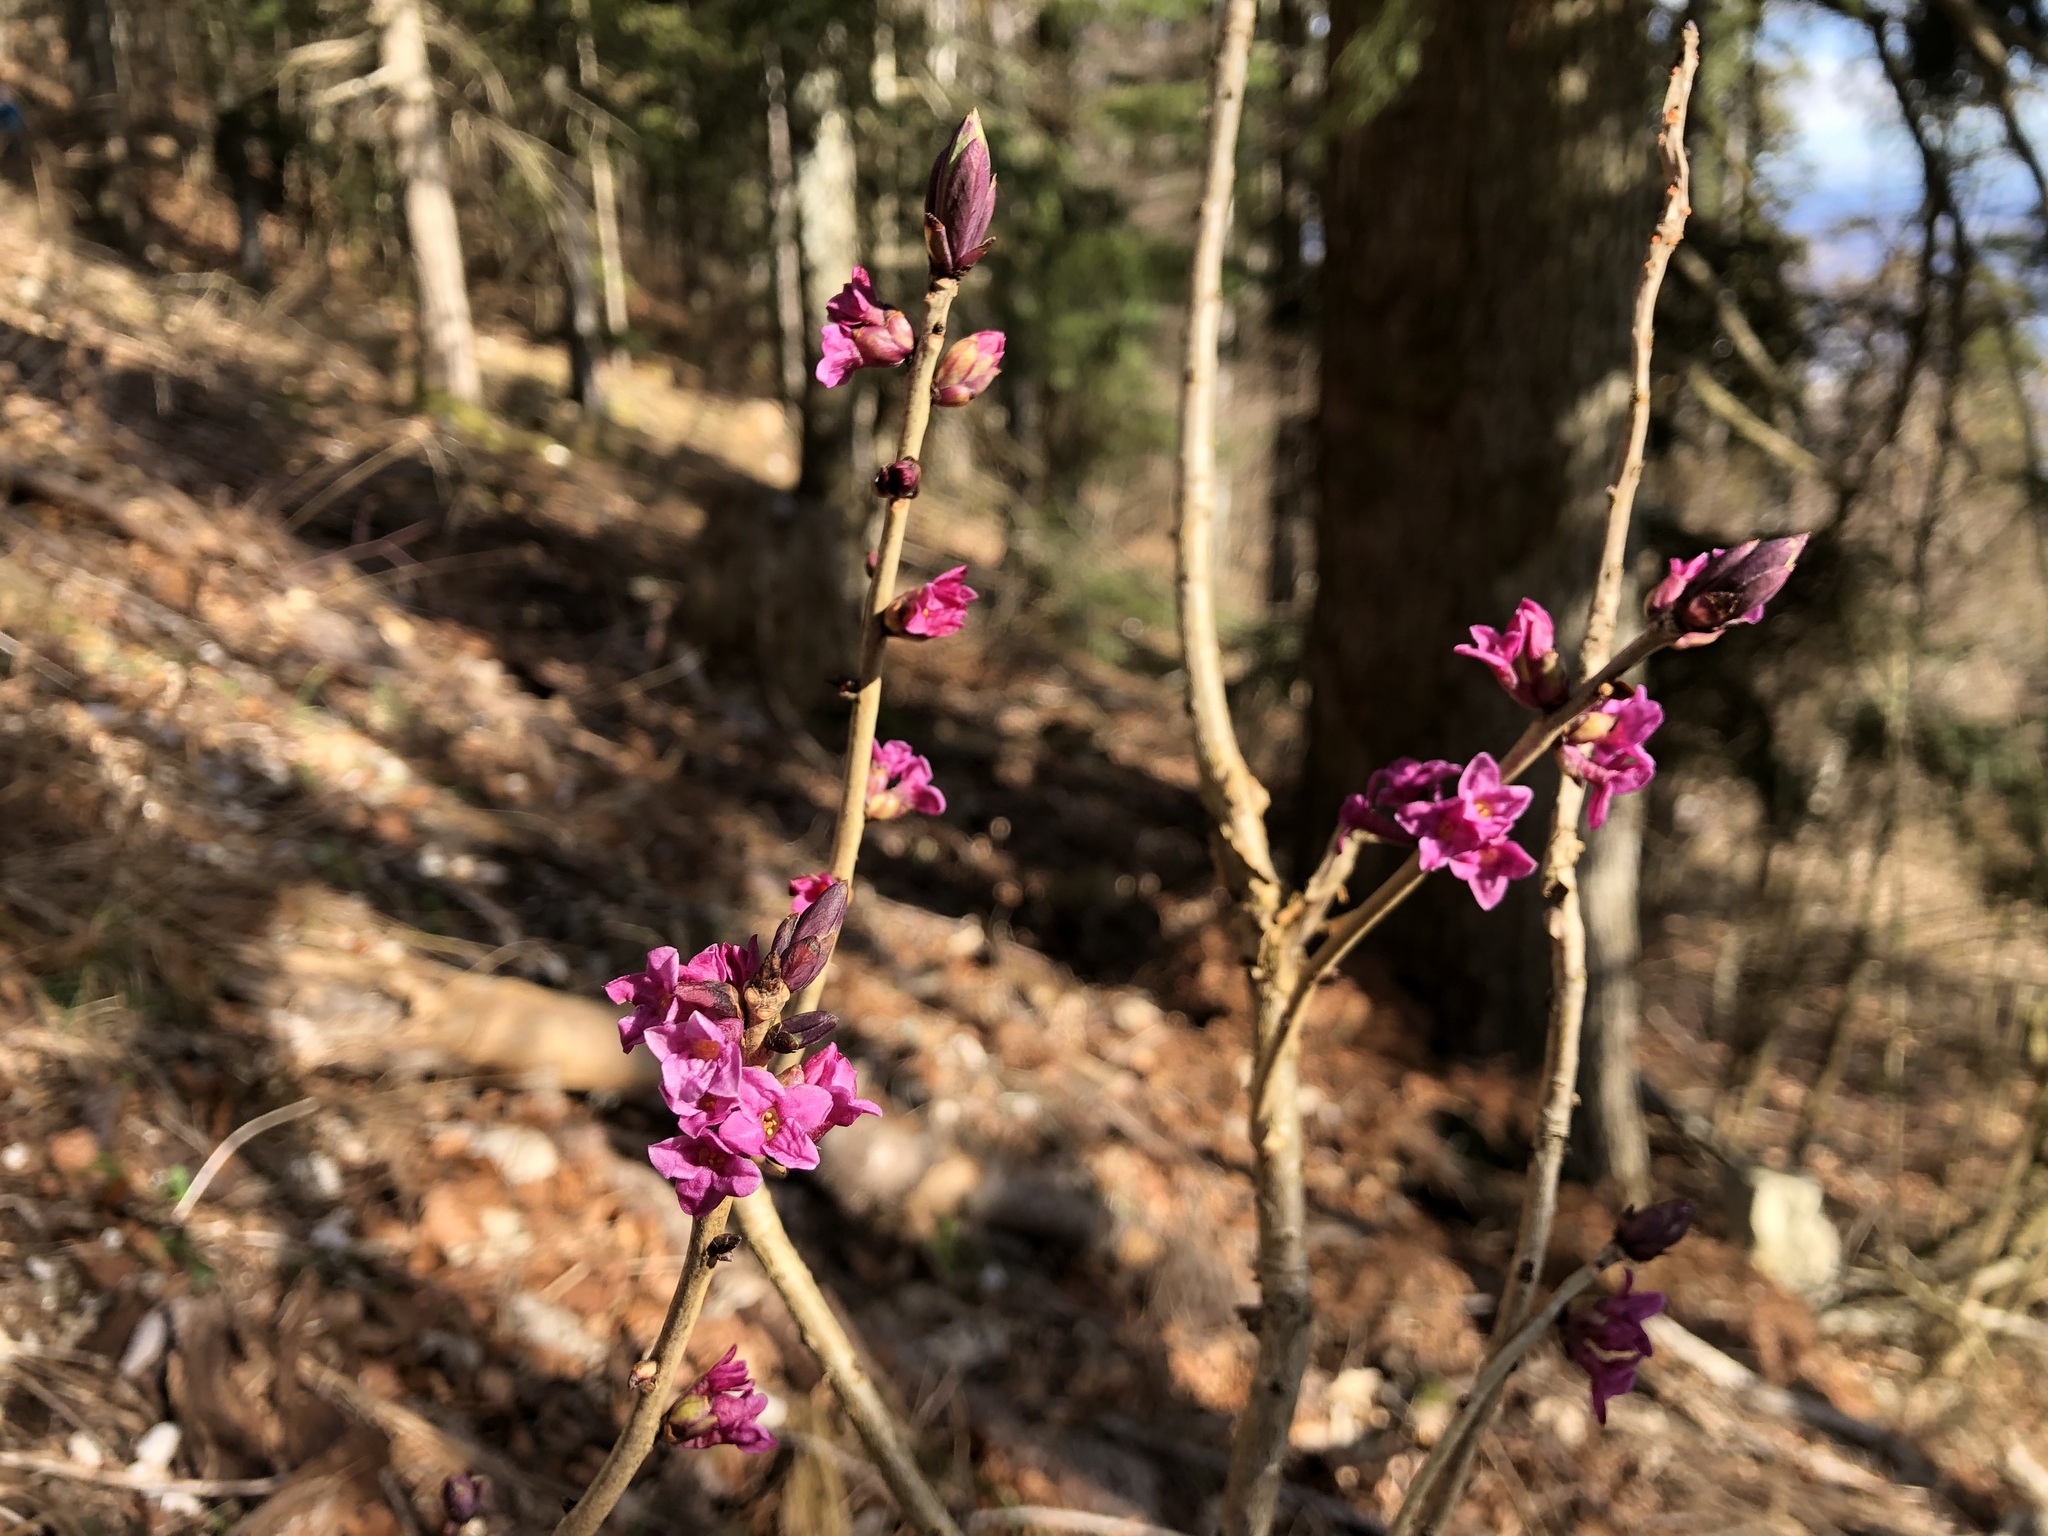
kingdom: Plantae
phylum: Tracheophyta
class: Magnoliopsida
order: Malvales
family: Thymelaeaceae
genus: Daphne
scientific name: Daphne mezereum
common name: Mezereon
